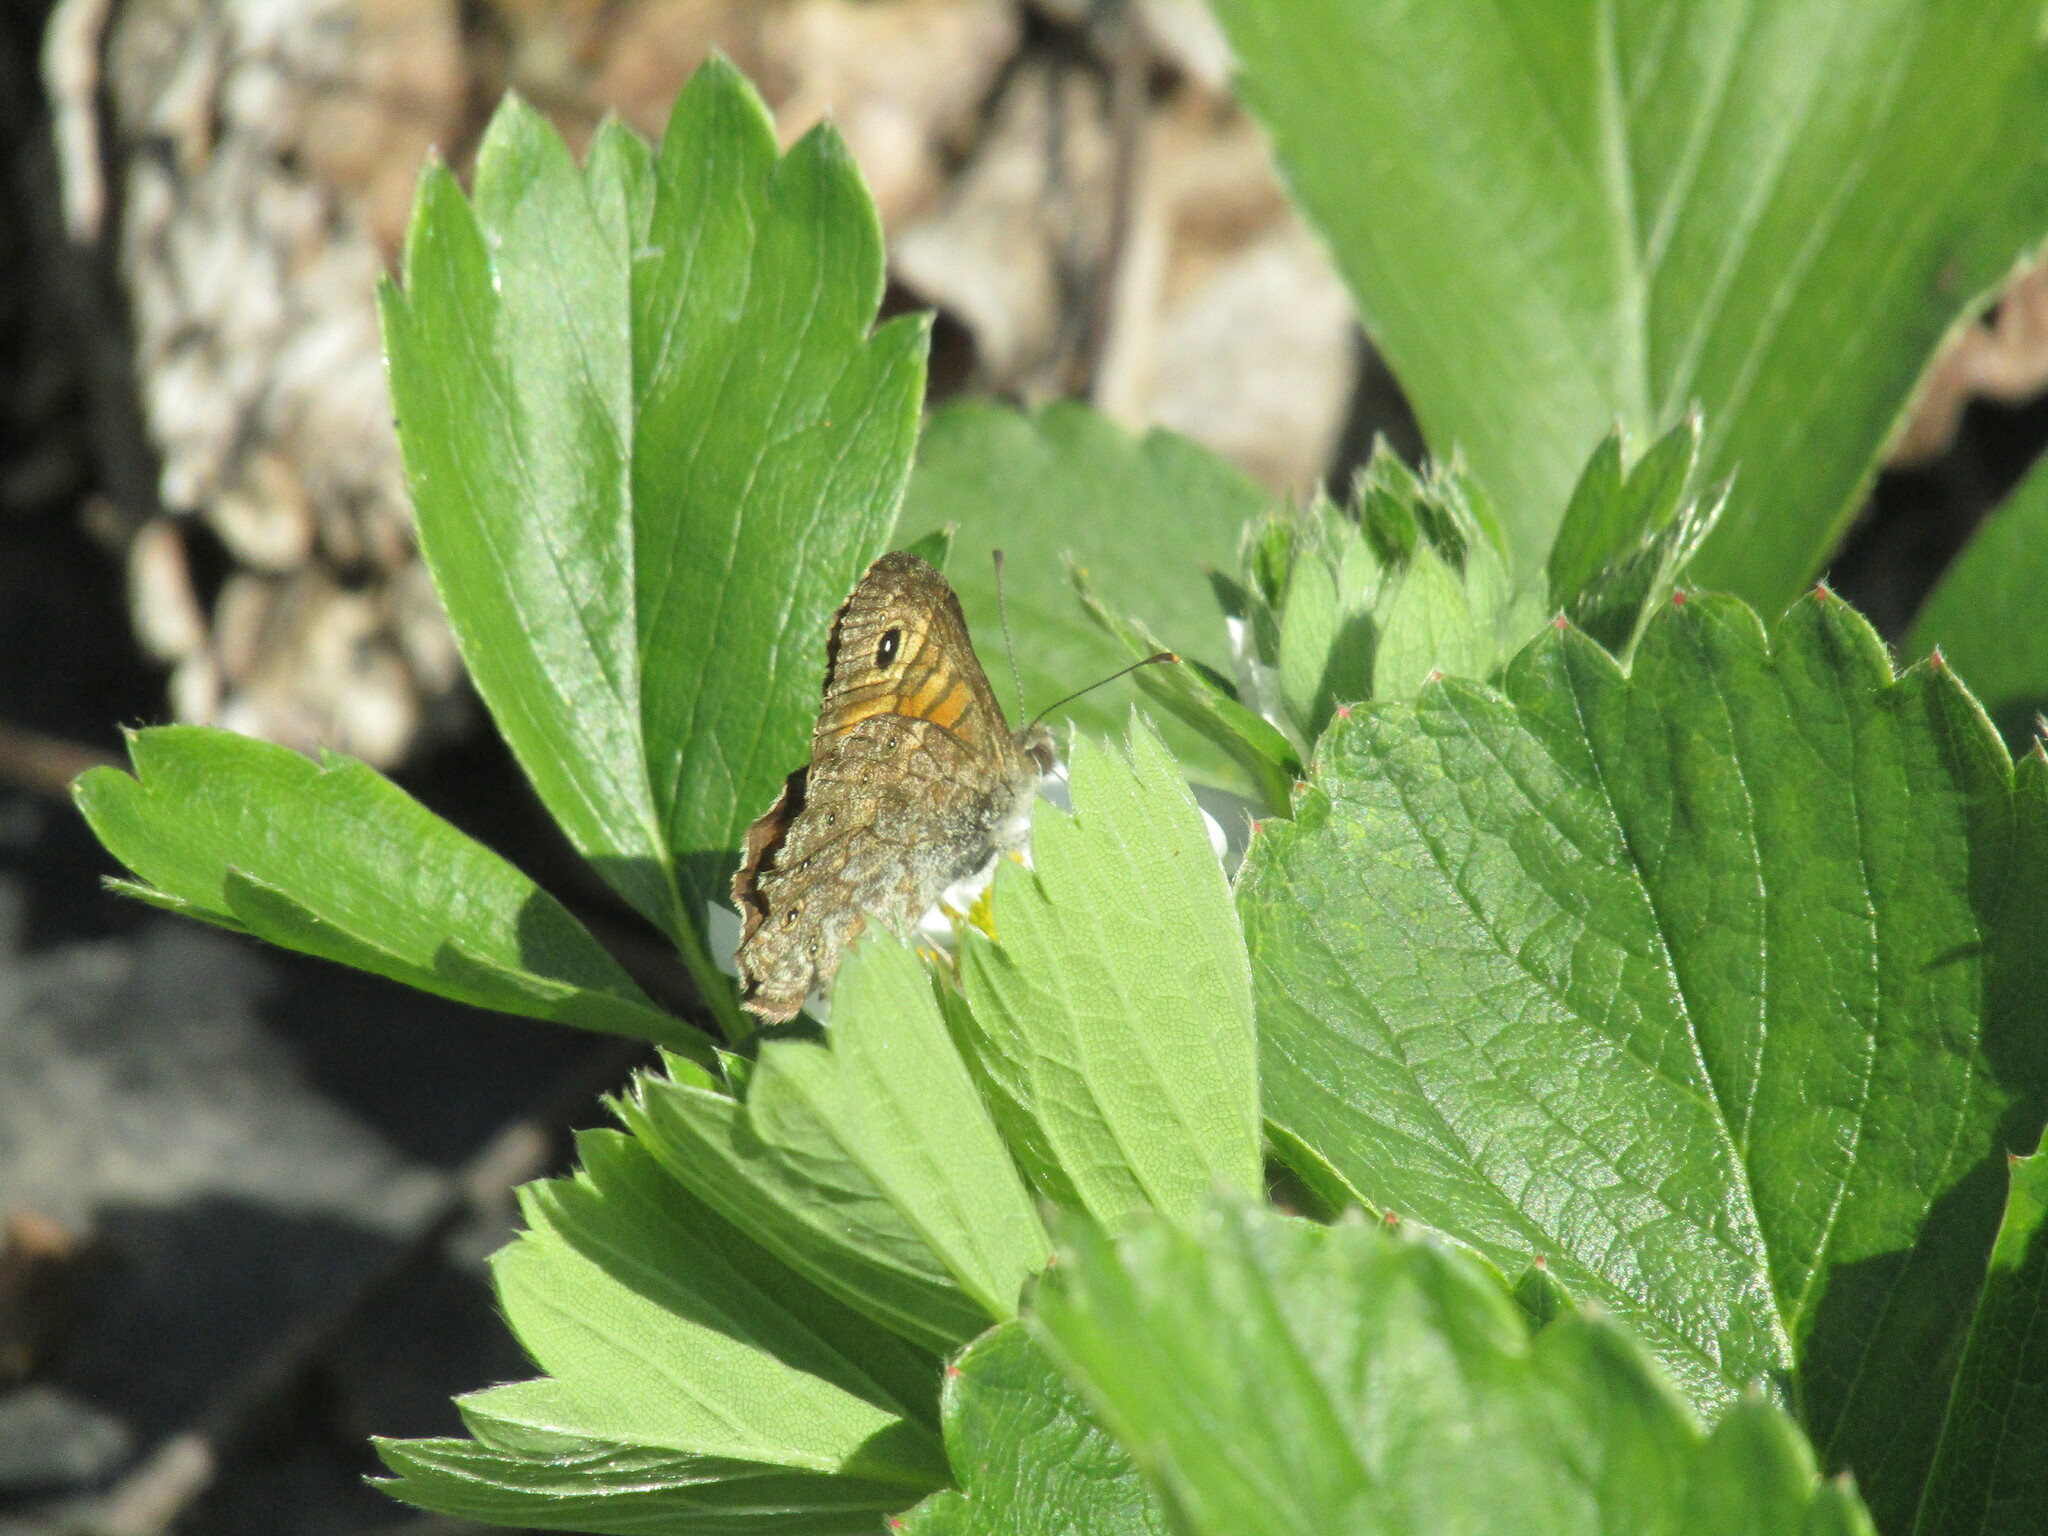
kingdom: Animalia
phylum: Arthropoda
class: Insecta
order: Lepidoptera
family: Nymphalidae
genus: Pararge
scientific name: Pararge Lasiommata megera
